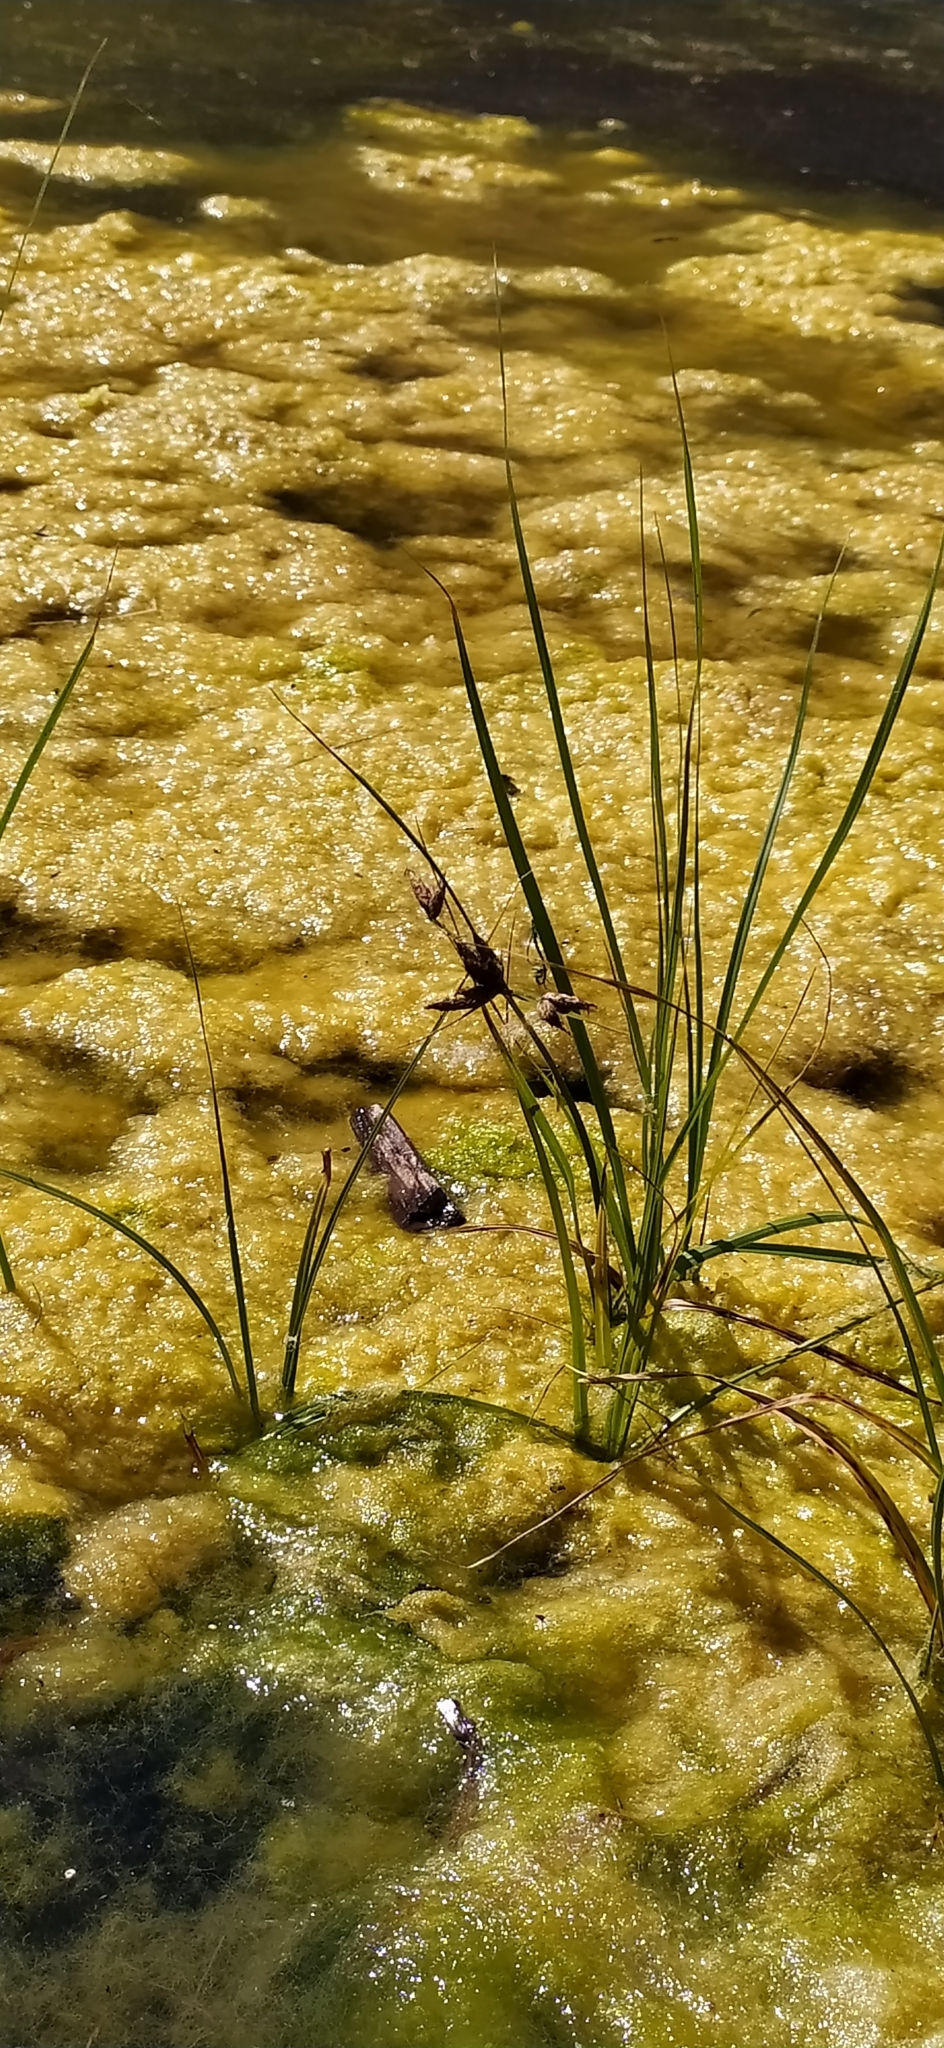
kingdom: Plantae
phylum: Tracheophyta
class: Liliopsida
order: Poales
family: Cyperaceae
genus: Bolboschoenus
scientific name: Bolboschoenus maritimus
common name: Sea club-rush
